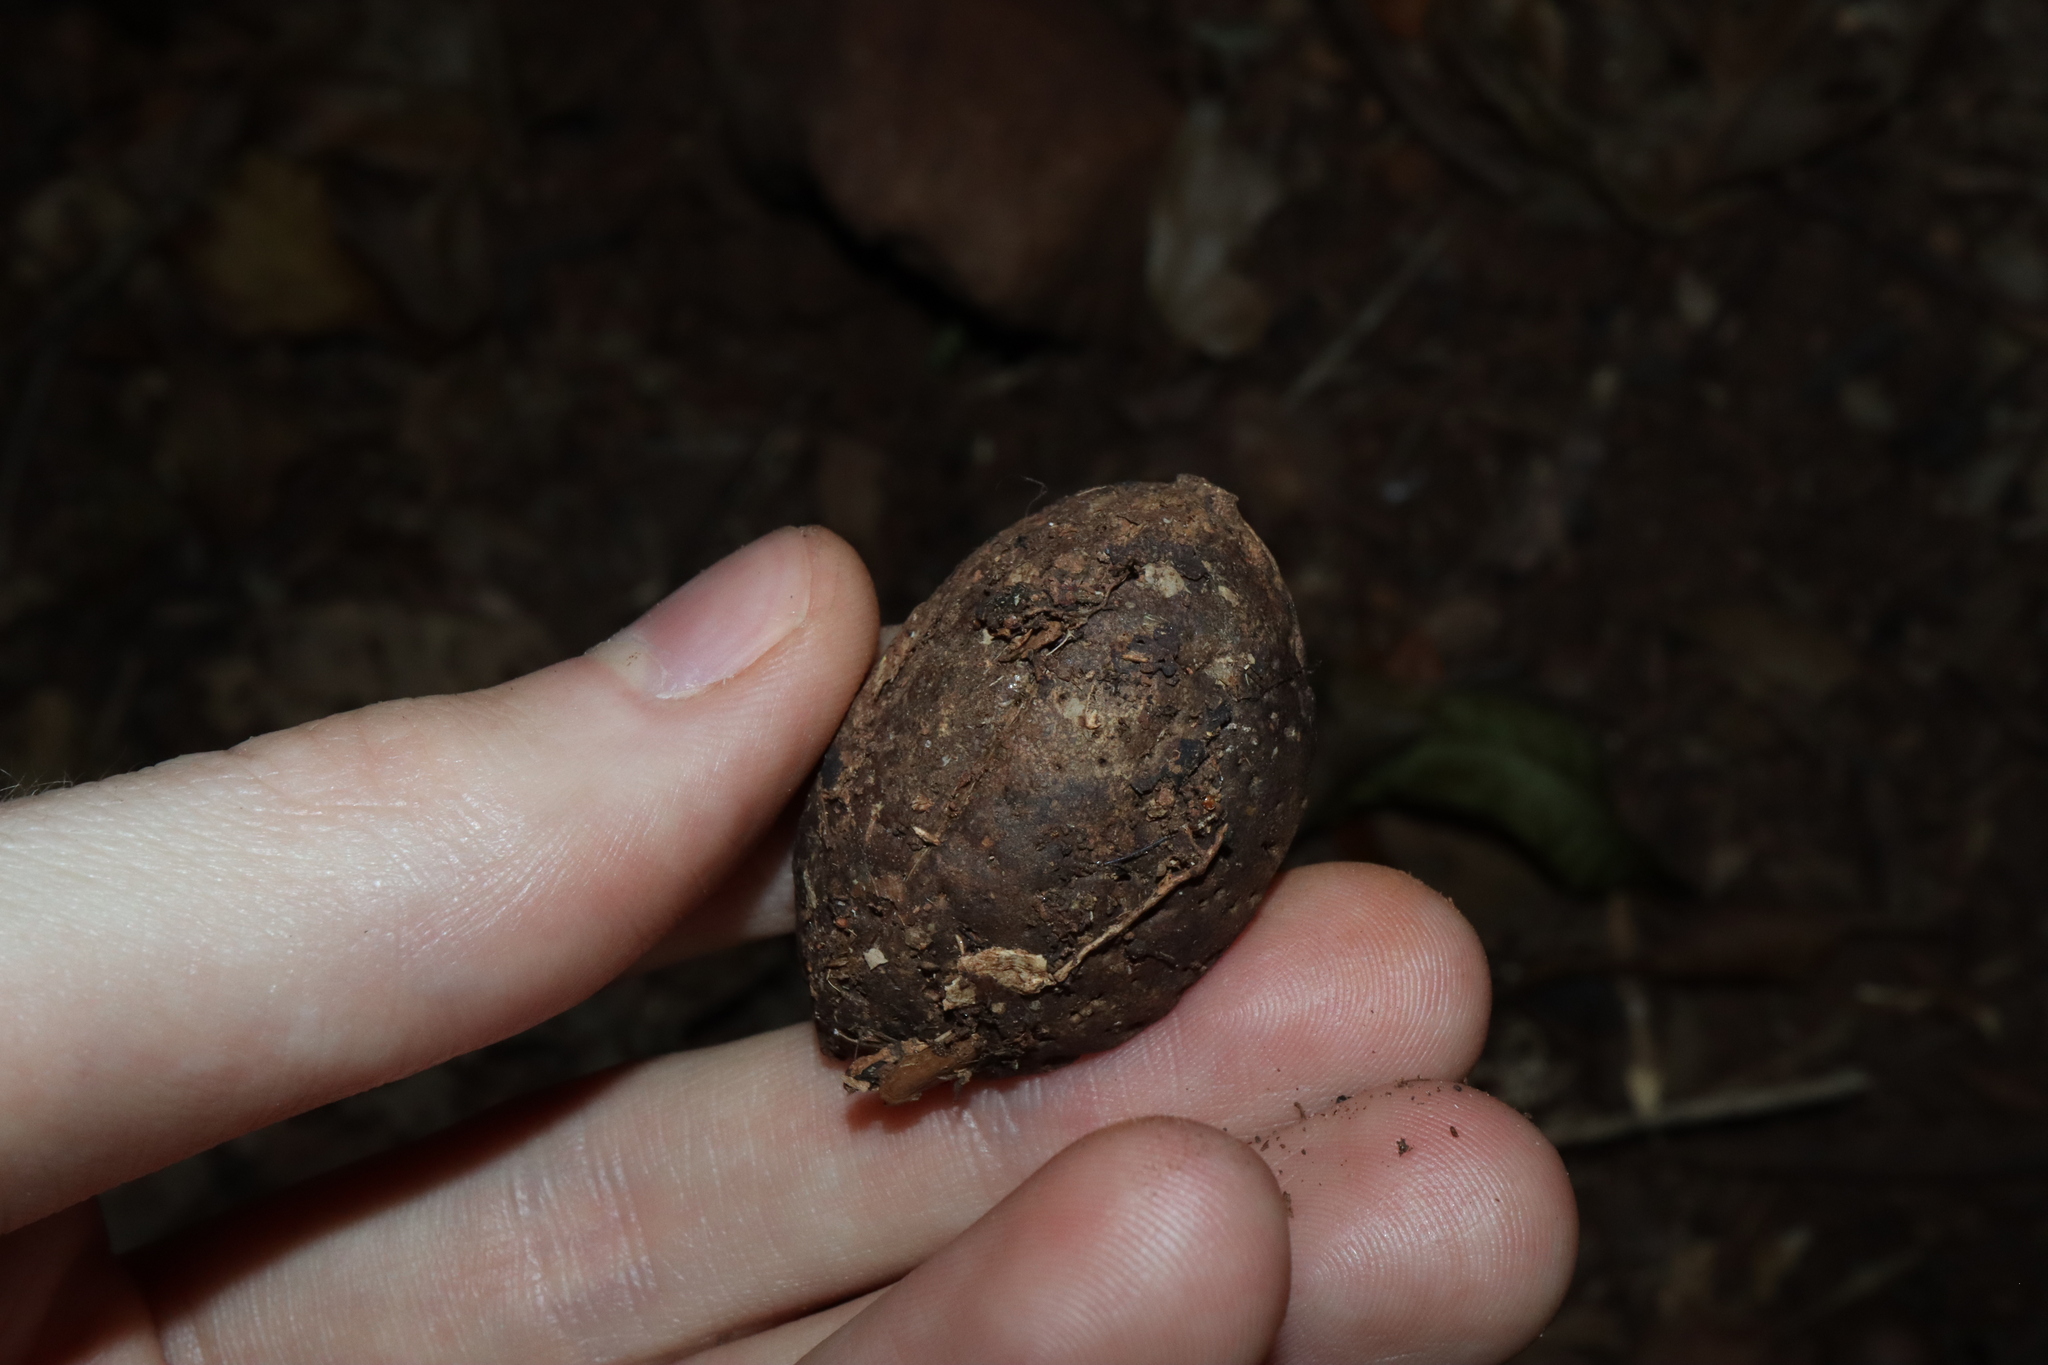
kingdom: Plantae
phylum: Tracheophyta
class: Magnoliopsida
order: Oxalidales
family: Elaeocarpaceae
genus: Elaeocarpus
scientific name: Elaeocarpus bancroftii
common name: Johnstone river-almond
